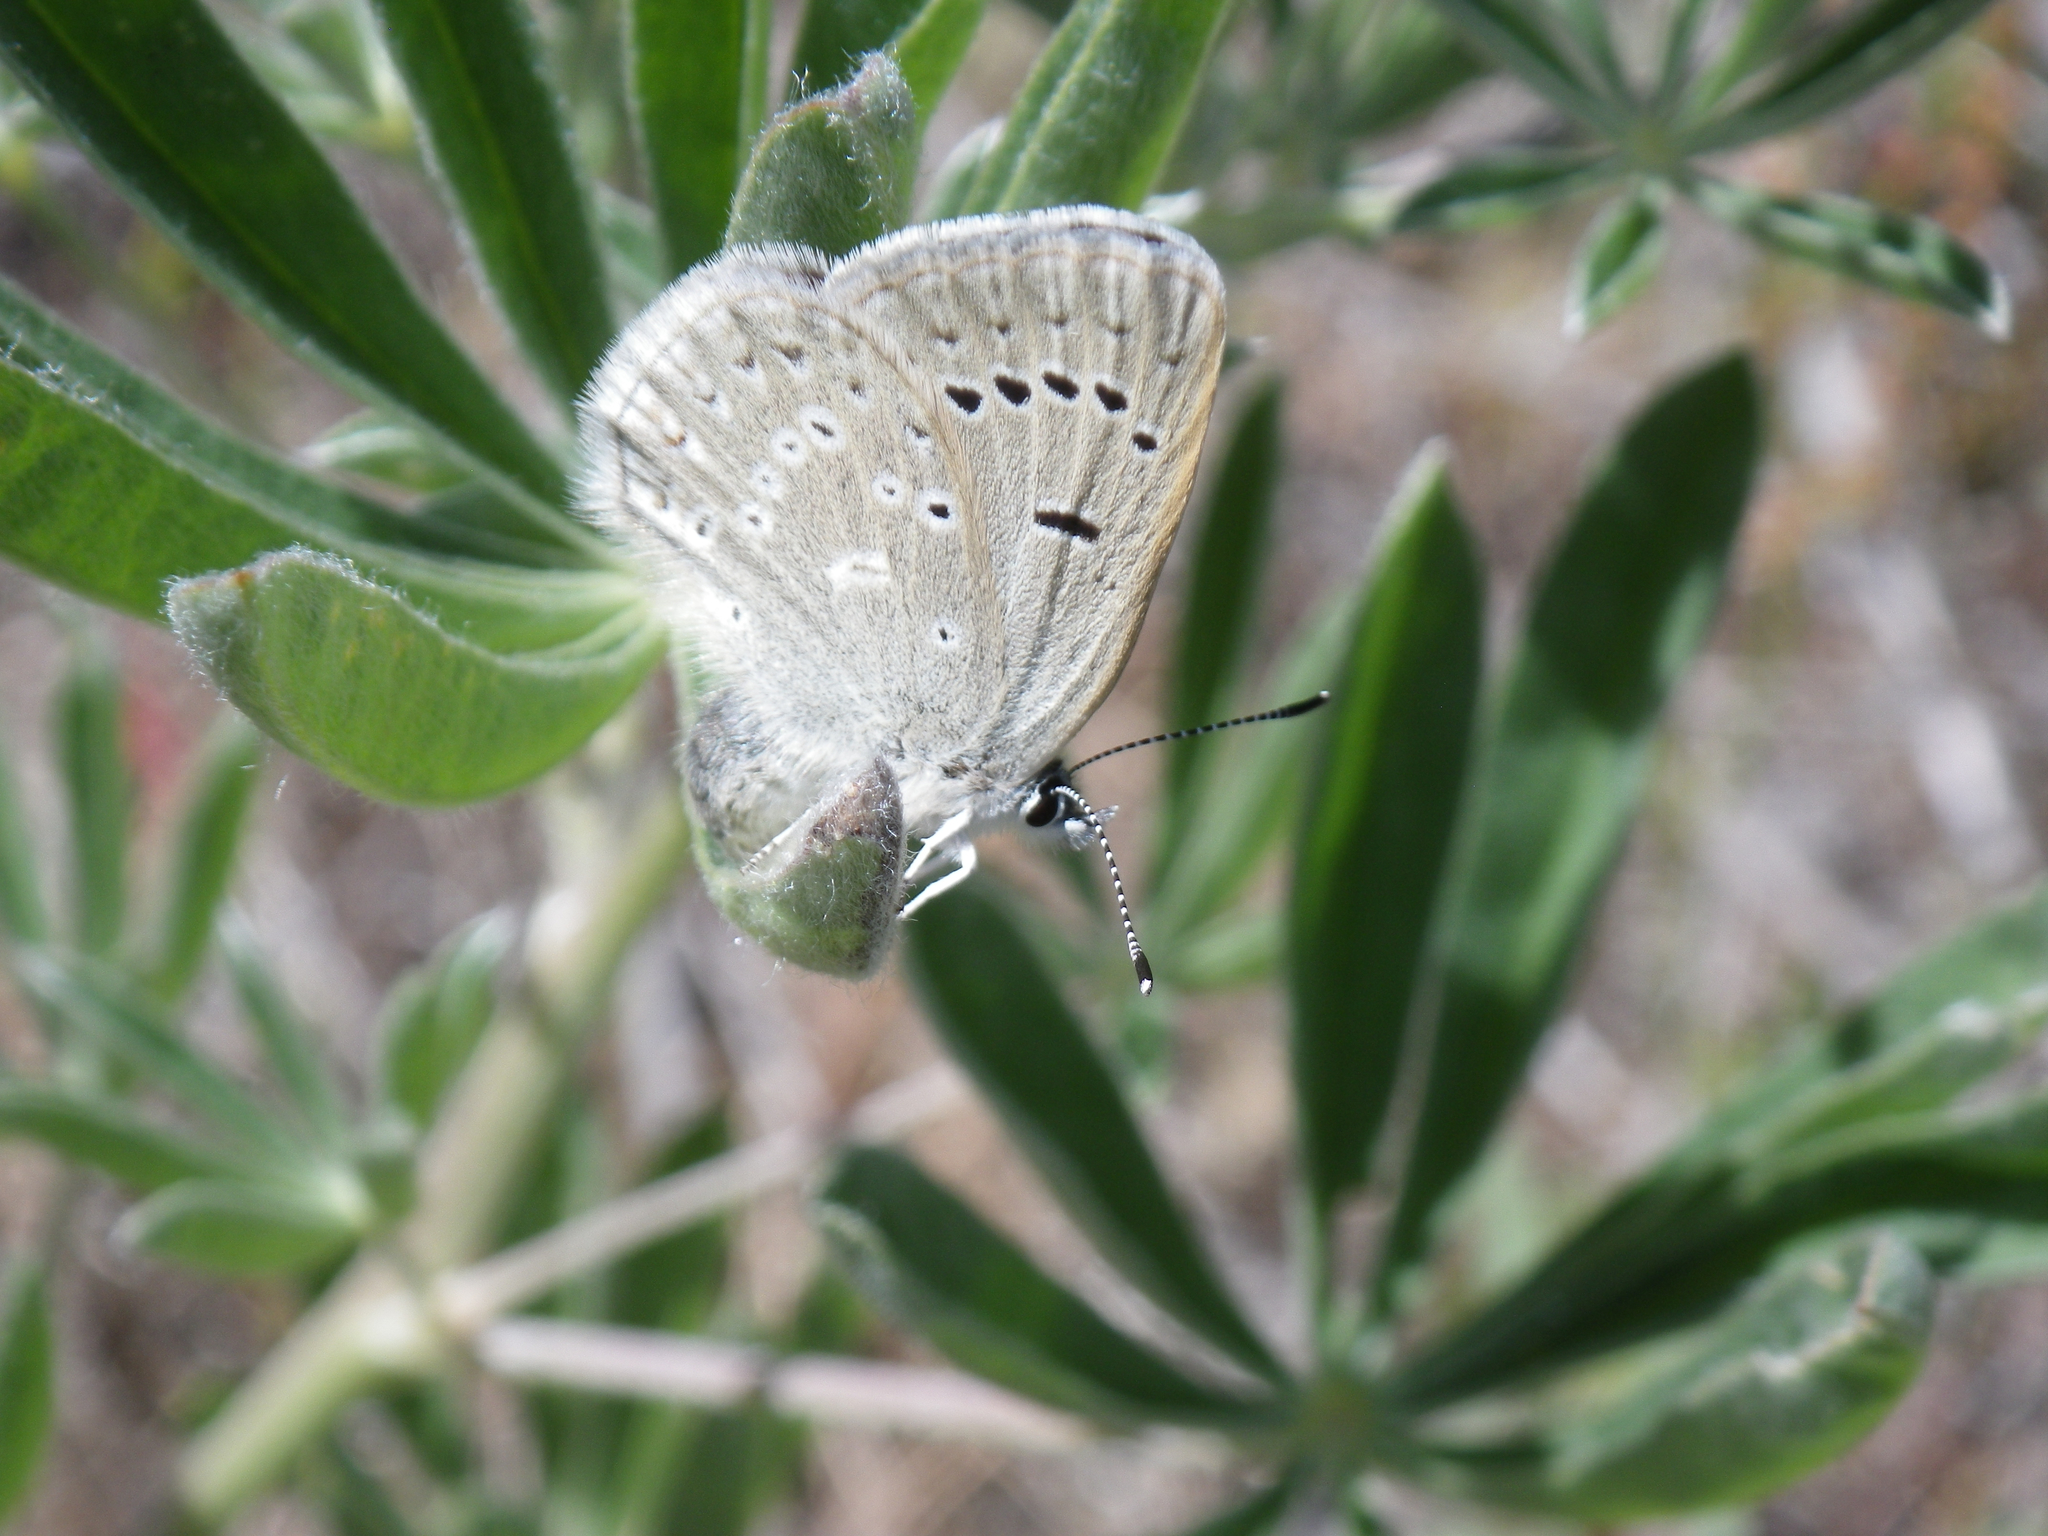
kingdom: Animalia
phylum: Arthropoda
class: Insecta
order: Lepidoptera
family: Lycaenidae
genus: Icaricia
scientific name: Icaricia icarioides
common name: Boisduval's blue
